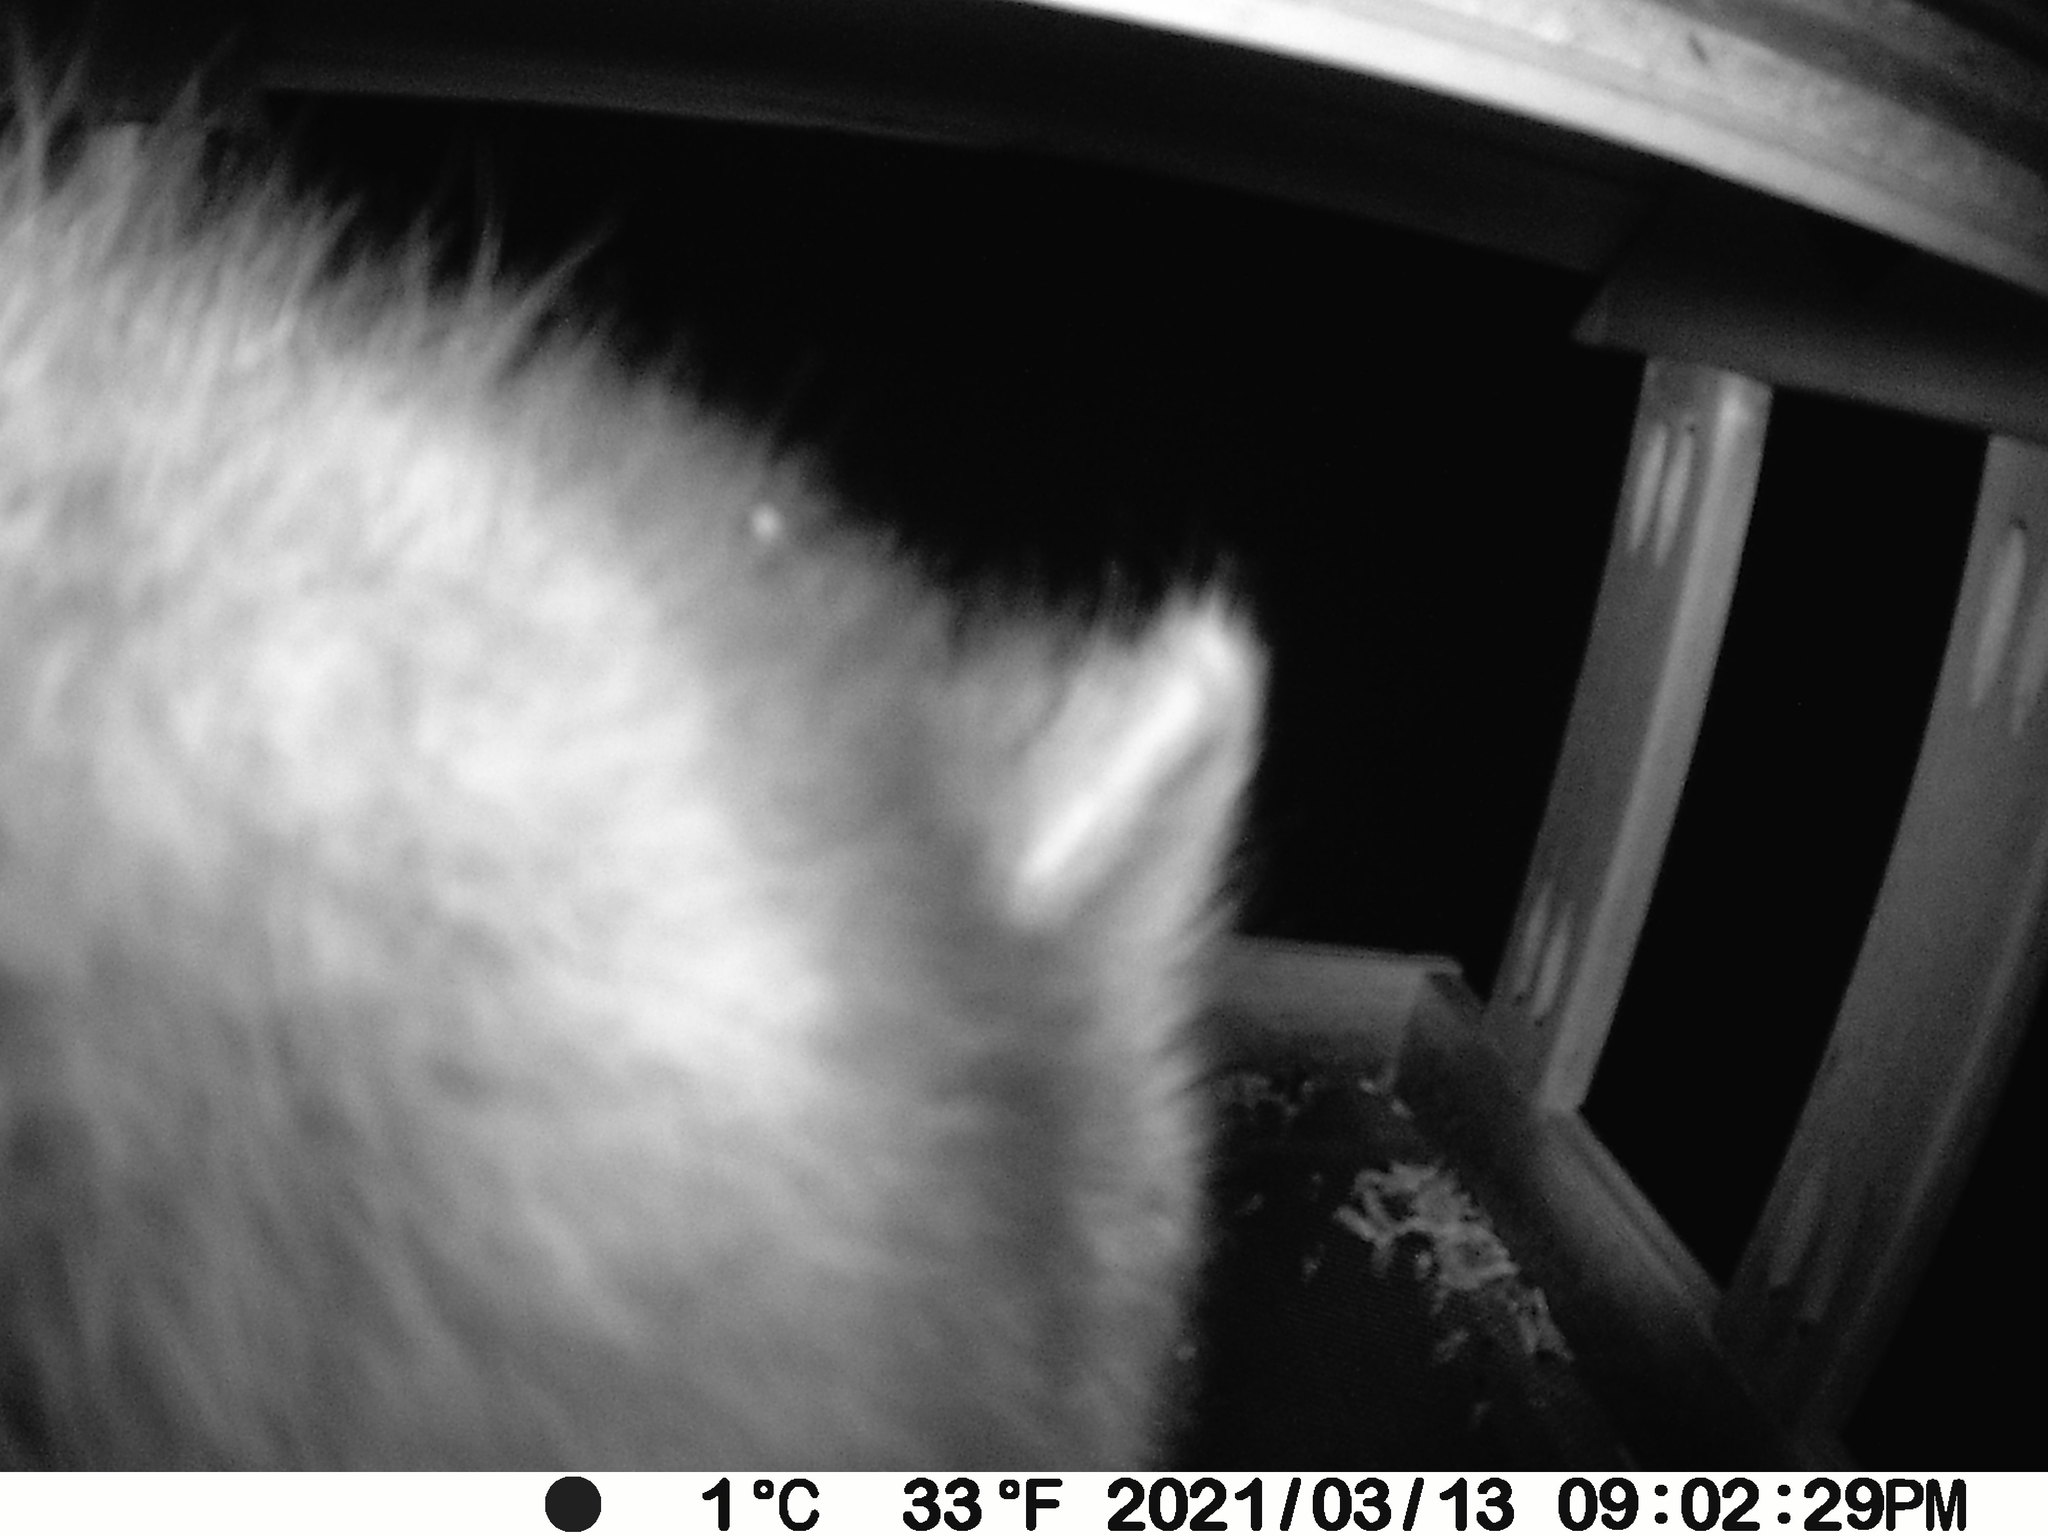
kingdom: Animalia
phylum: Chordata
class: Mammalia
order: Carnivora
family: Procyonidae
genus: Procyon
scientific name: Procyon lotor
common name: Raccoon
